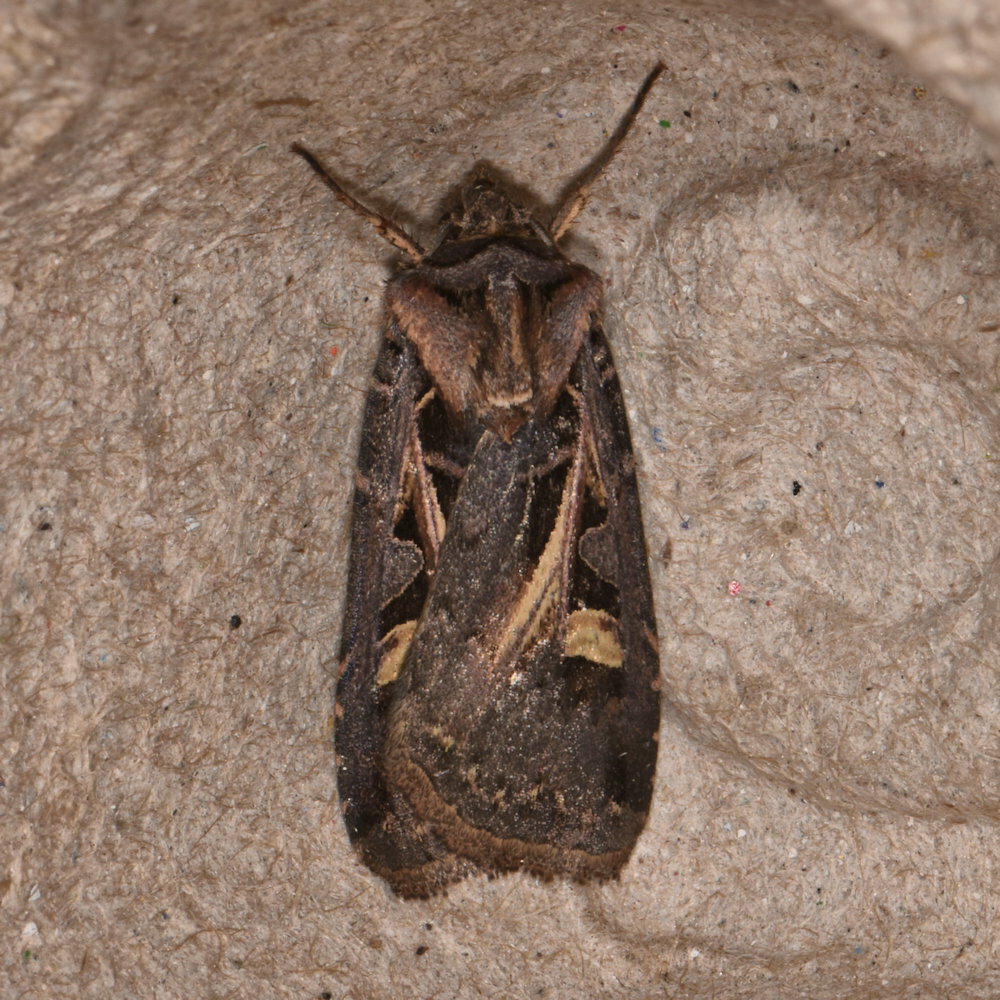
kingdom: Animalia
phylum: Arthropoda
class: Insecta
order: Lepidoptera
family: Noctuidae
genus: Feltia
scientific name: Feltia herilis
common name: Master's dart
